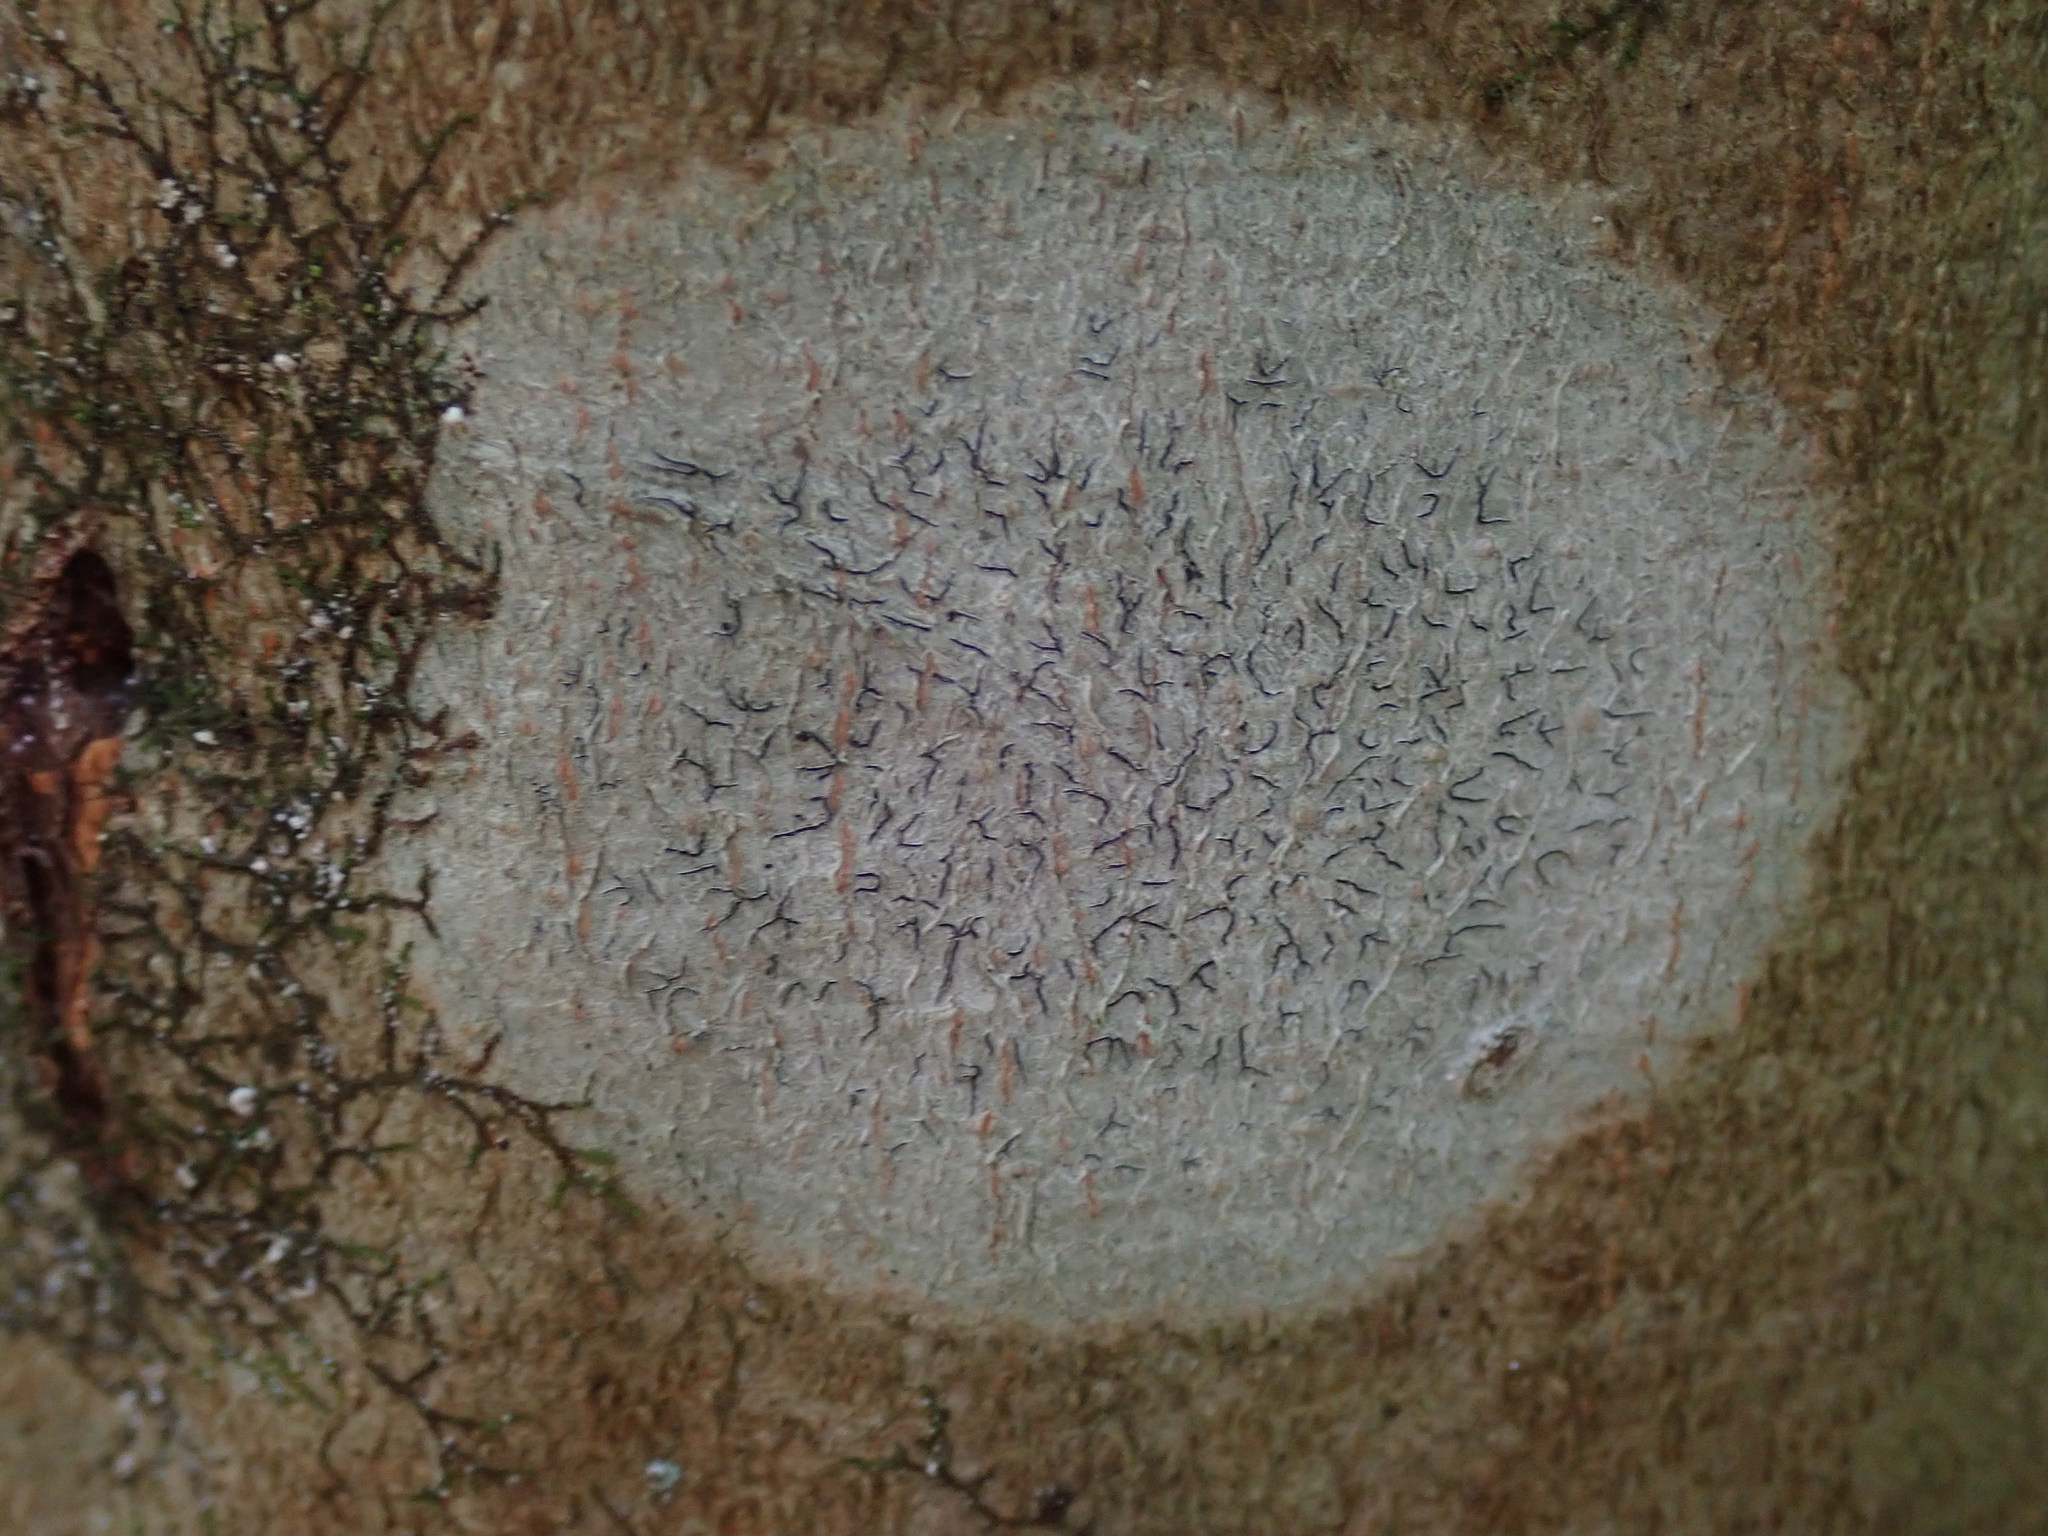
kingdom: Fungi
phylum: Ascomycota
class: Lecanoromycetes
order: Ostropales
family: Graphidaceae
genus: Graphis
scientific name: Graphis scripta
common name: Script lichen
